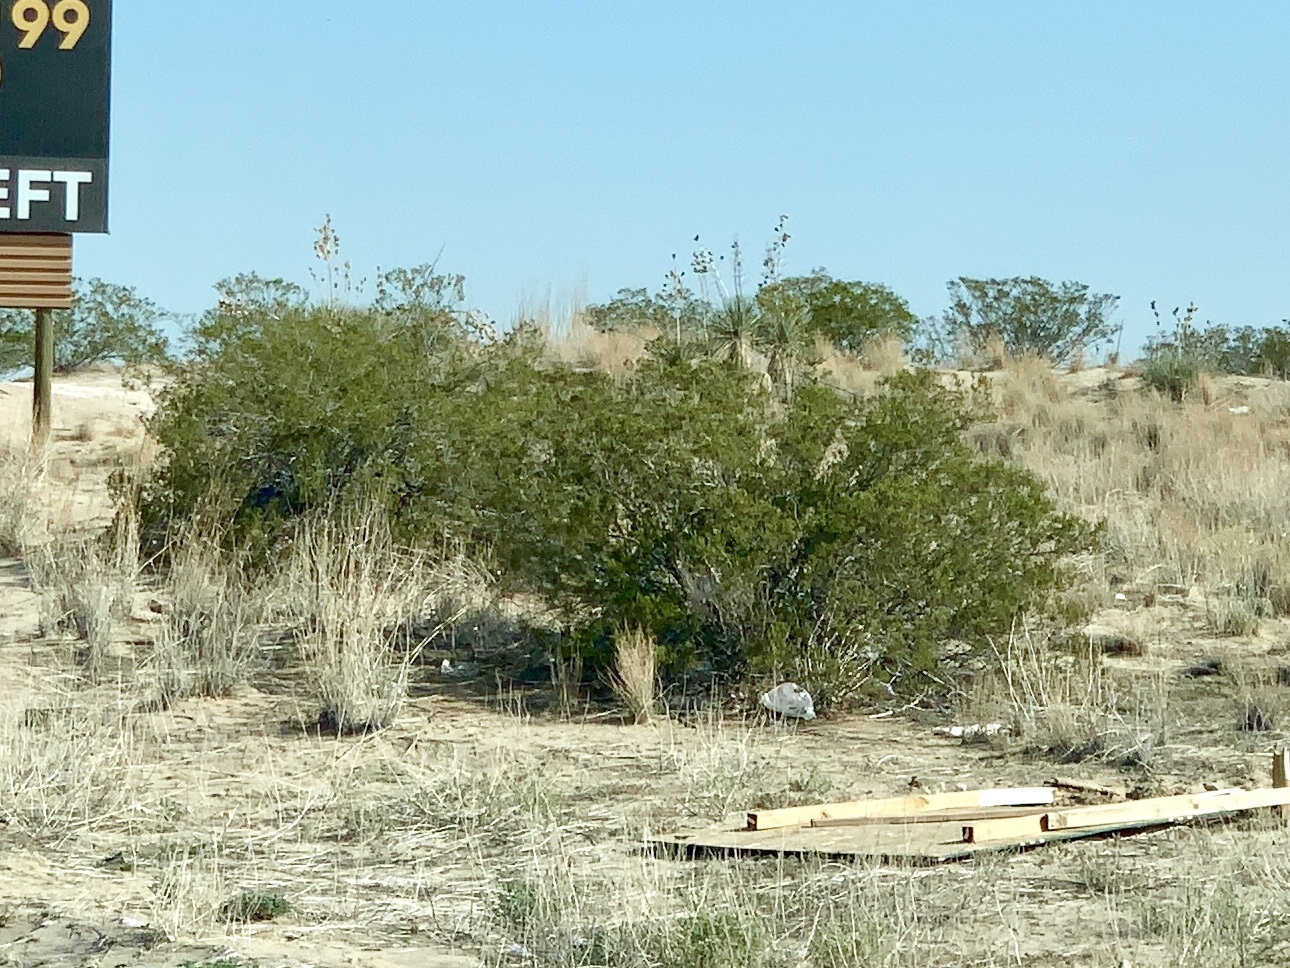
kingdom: Plantae
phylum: Tracheophyta
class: Magnoliopsida
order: Zygophyllales
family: Zygophyllaceae
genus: Larrea
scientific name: Larrea tridentata
